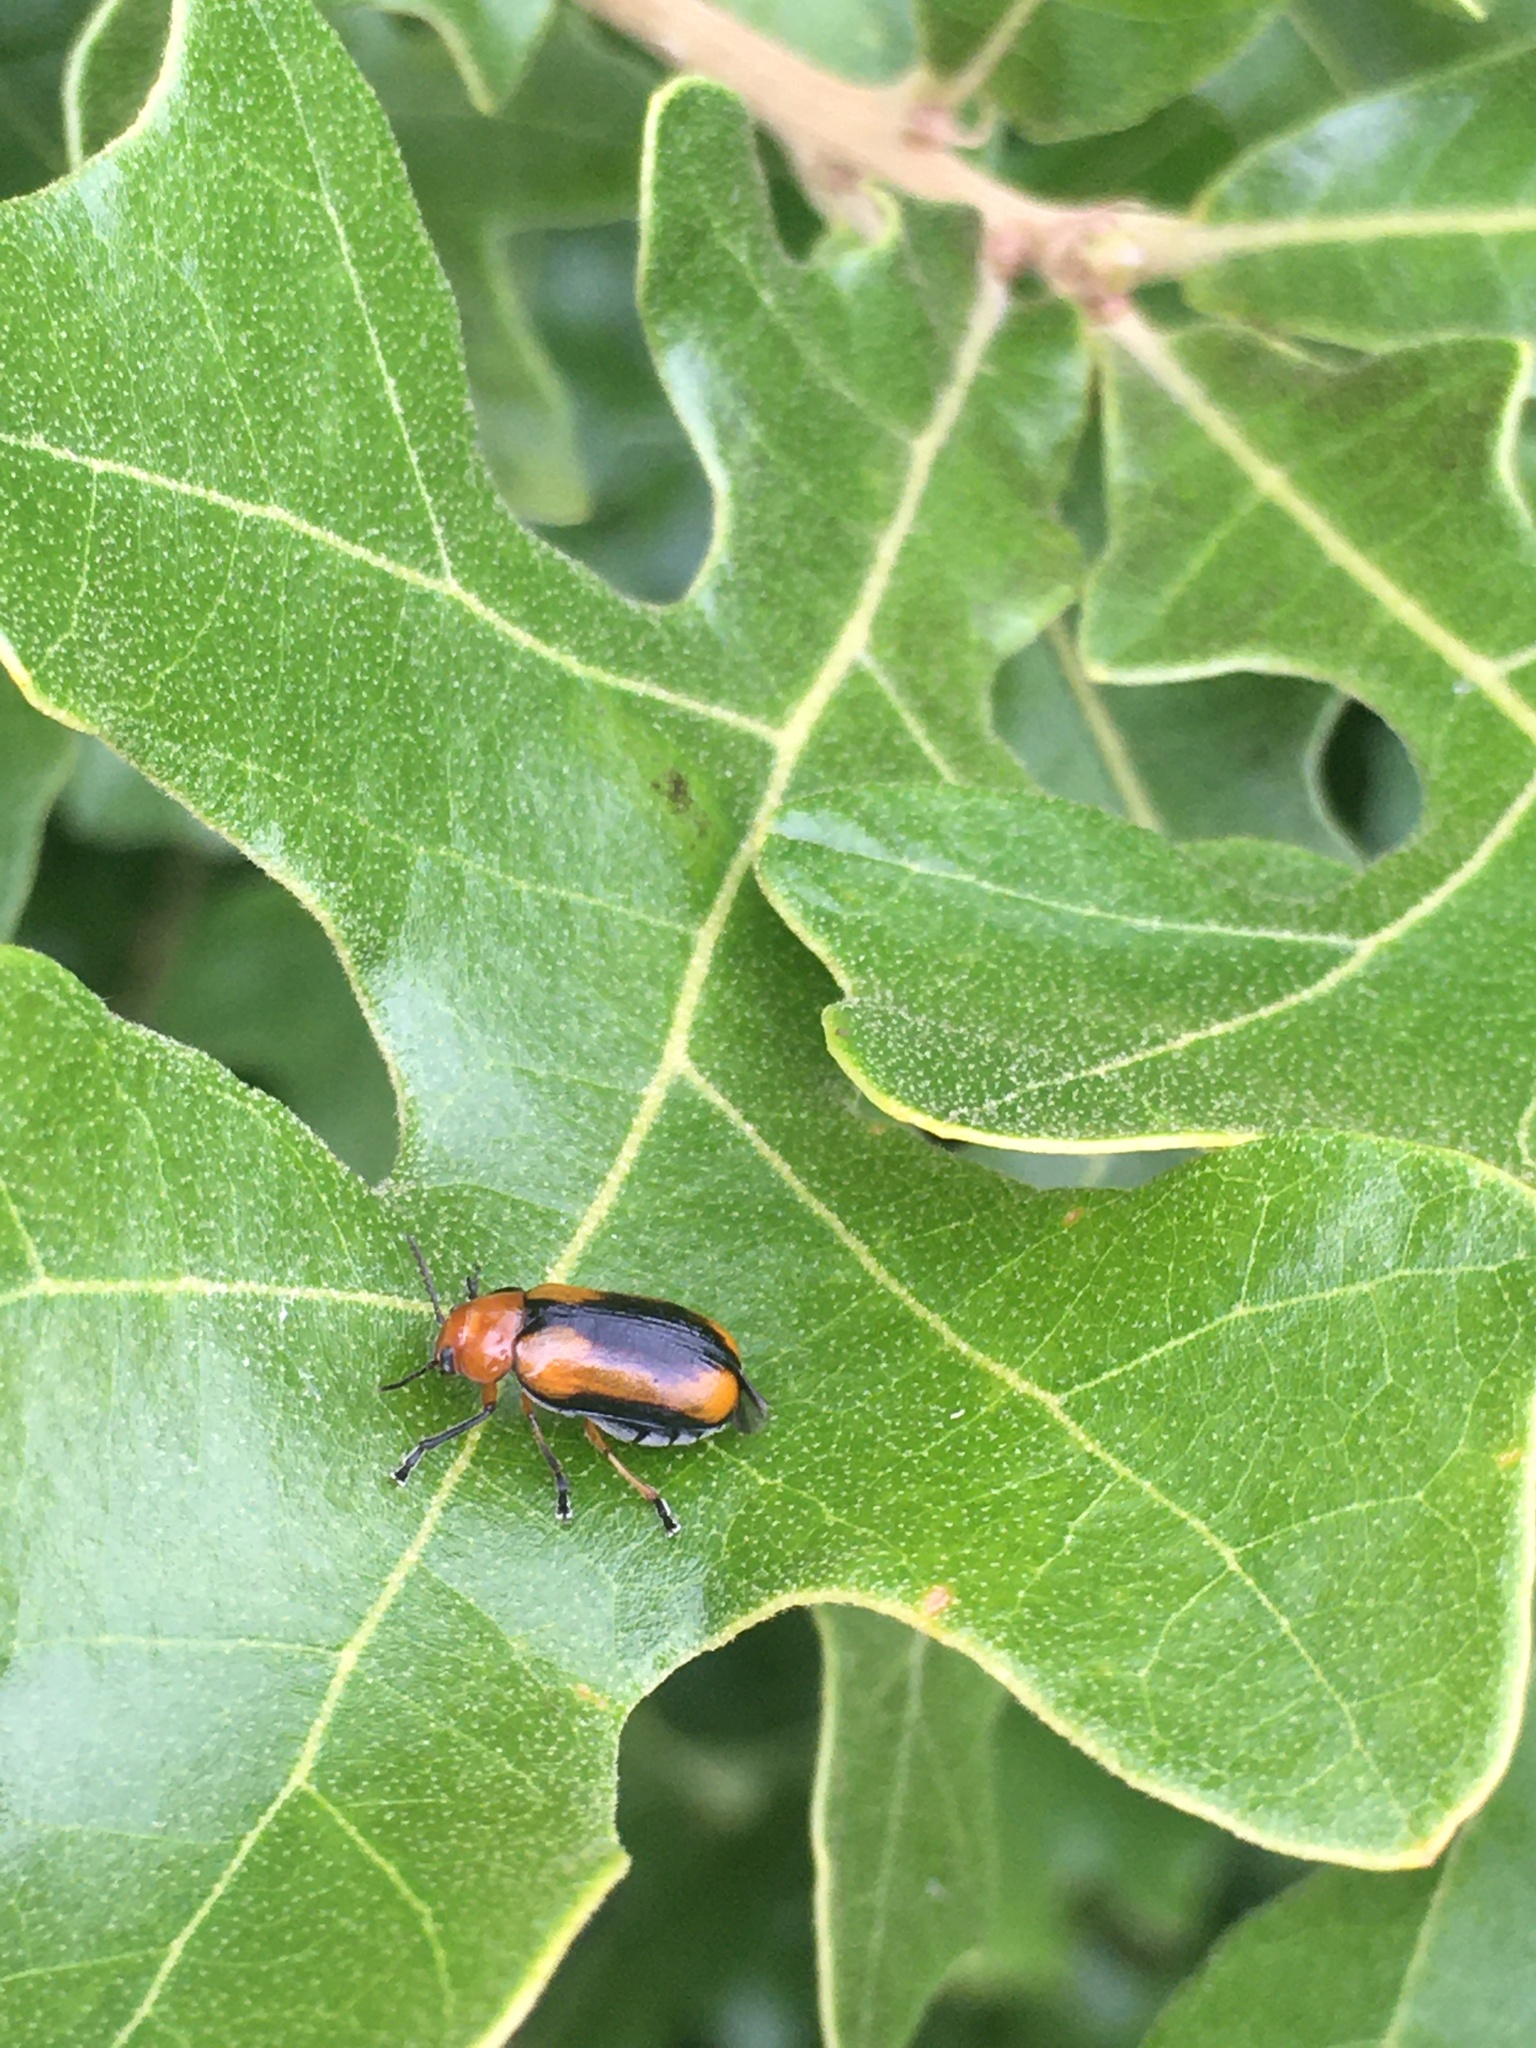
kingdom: Animalia
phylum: Arthropoda
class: Insecta
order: Coleoptera
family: Chrysomelidae
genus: Anomoea
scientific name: Anomoea laticlavia
